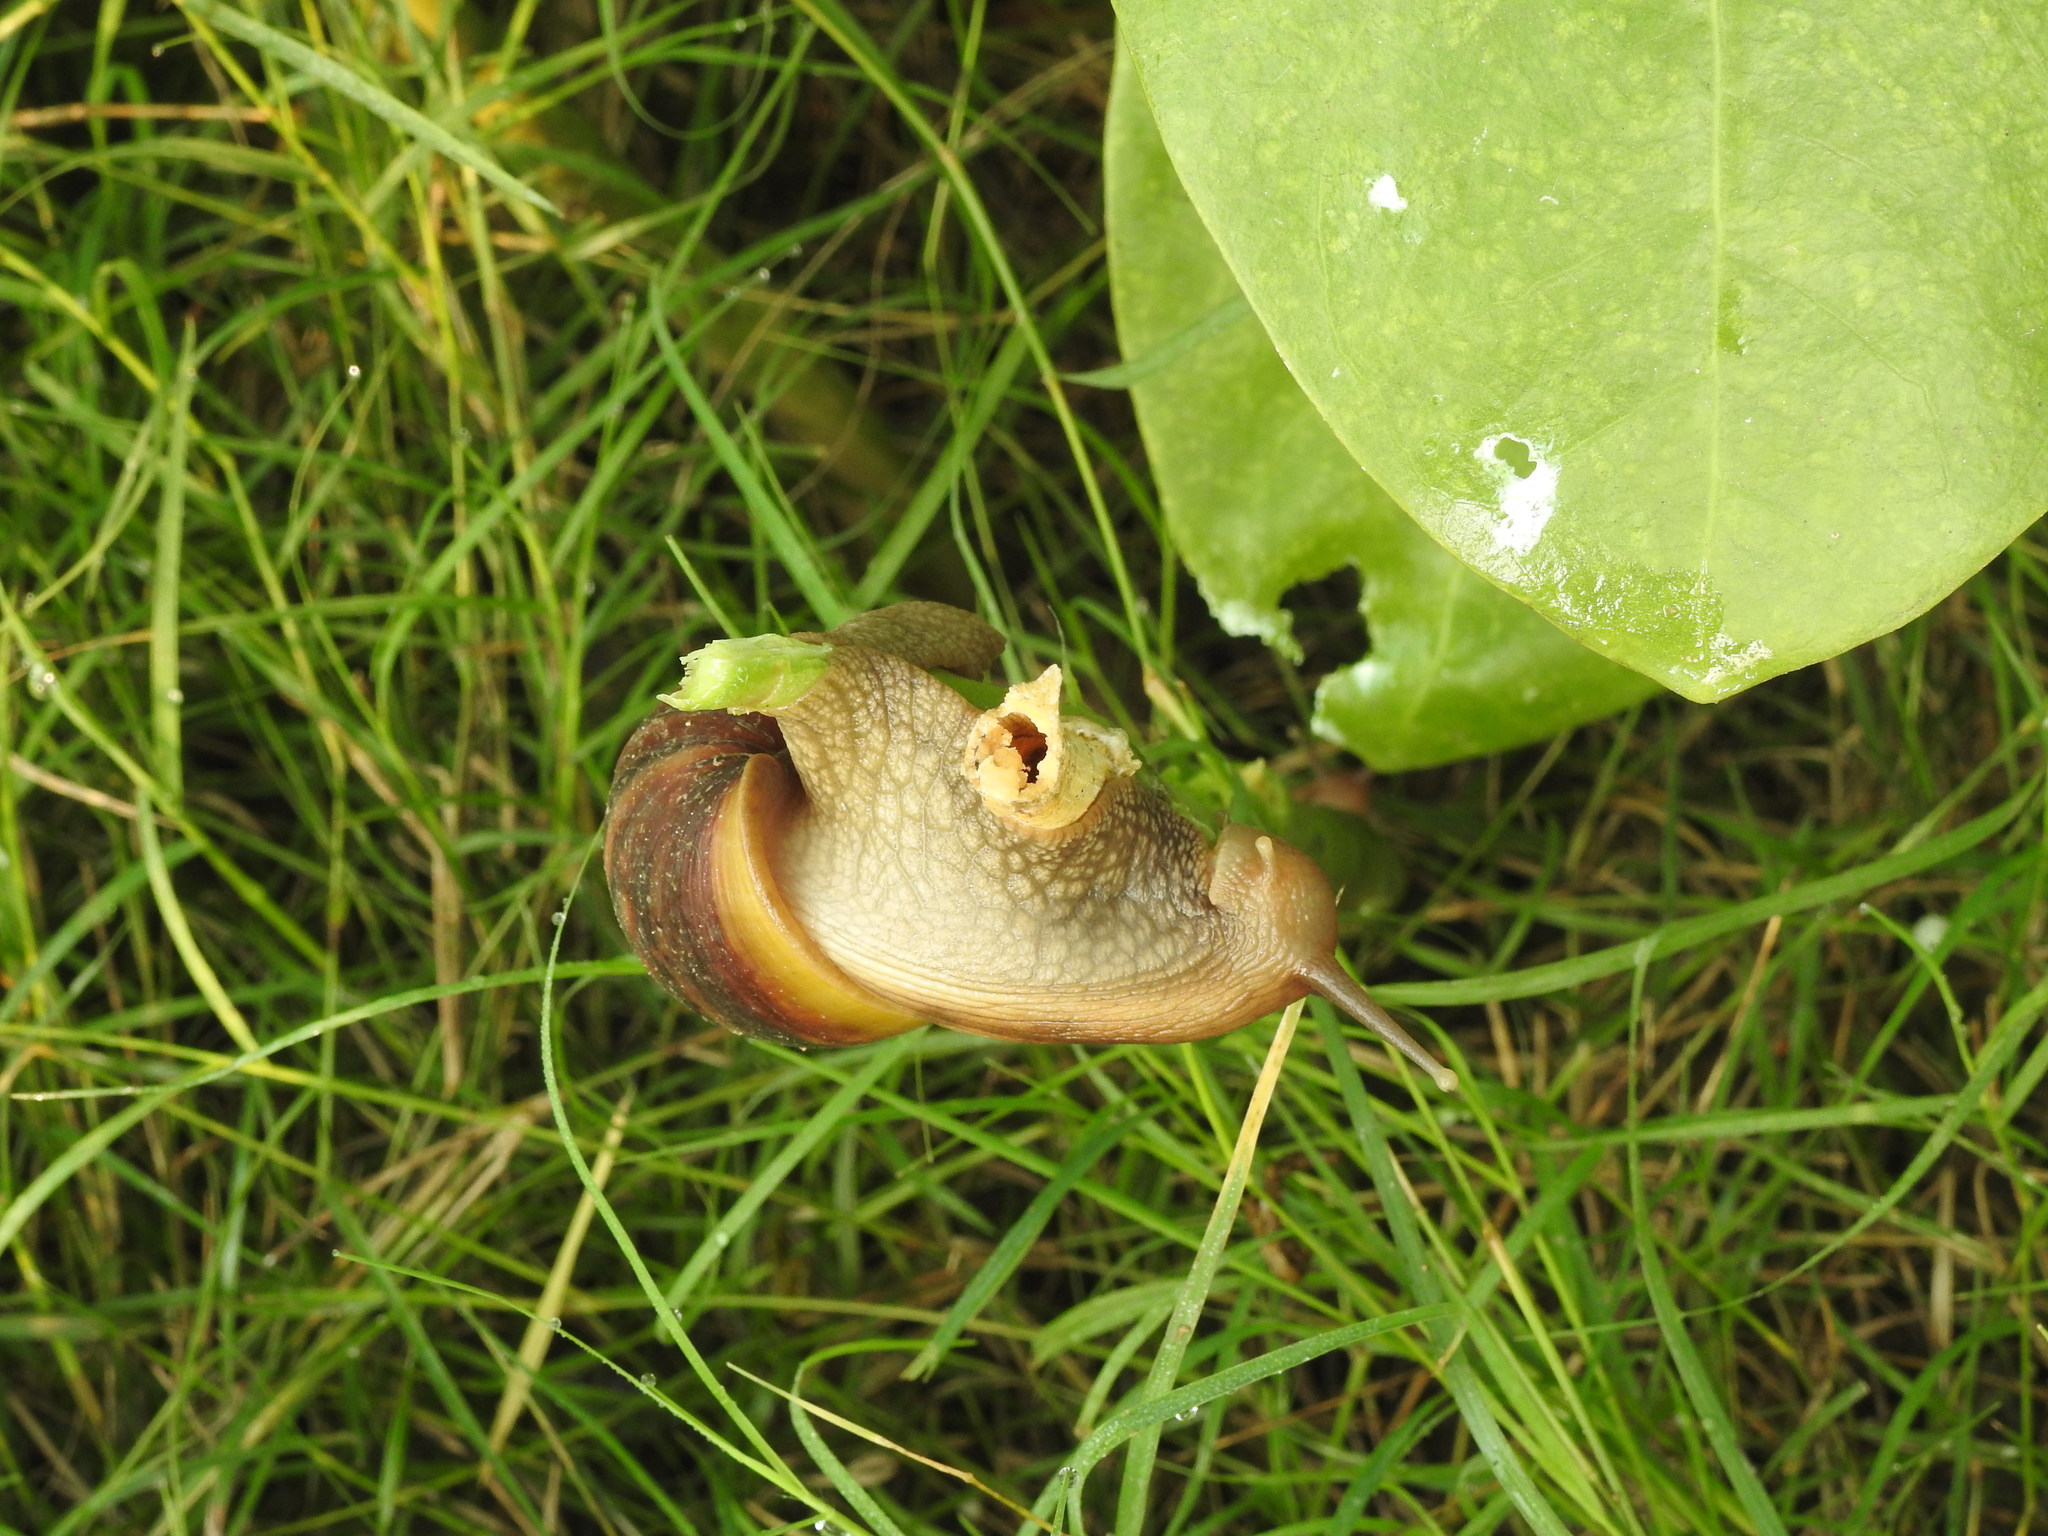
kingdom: Animalia
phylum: Mollusca
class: Gastropoda
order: Stylommatophora
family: Achatinidae
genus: Lissachatina
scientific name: Lissachatina fulica
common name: Giant african snail
